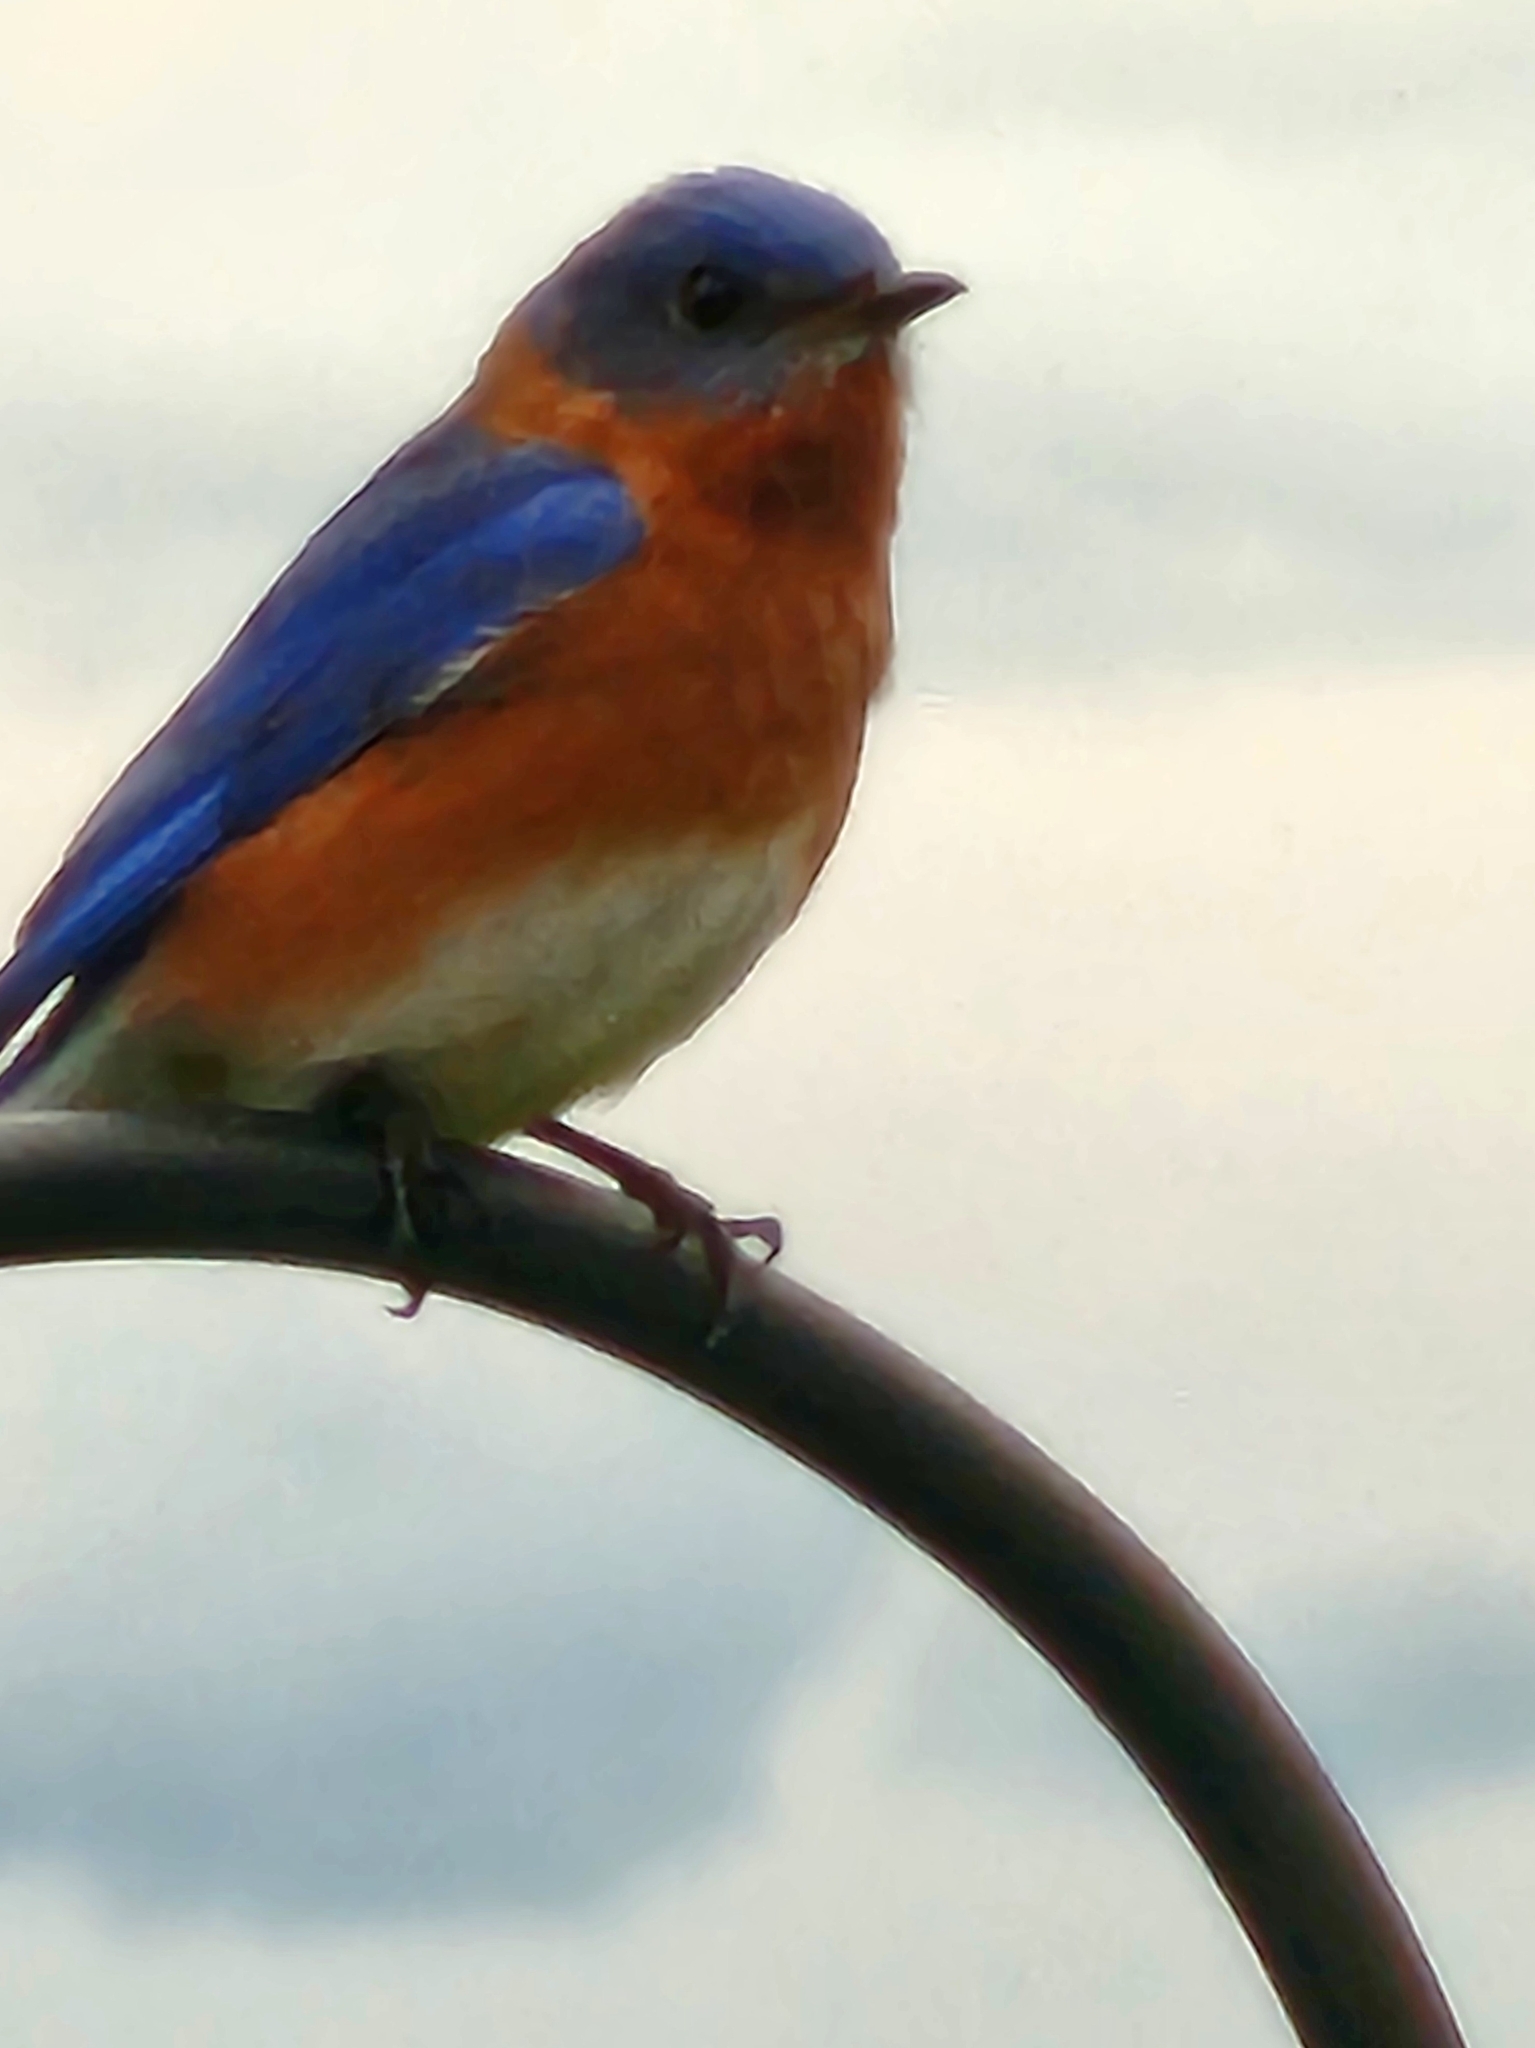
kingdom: Animalia
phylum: Chordata
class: Aves
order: Passeriformes
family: Turdidae
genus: Sialia
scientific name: Sialia sialis
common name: Eastern bluebird
